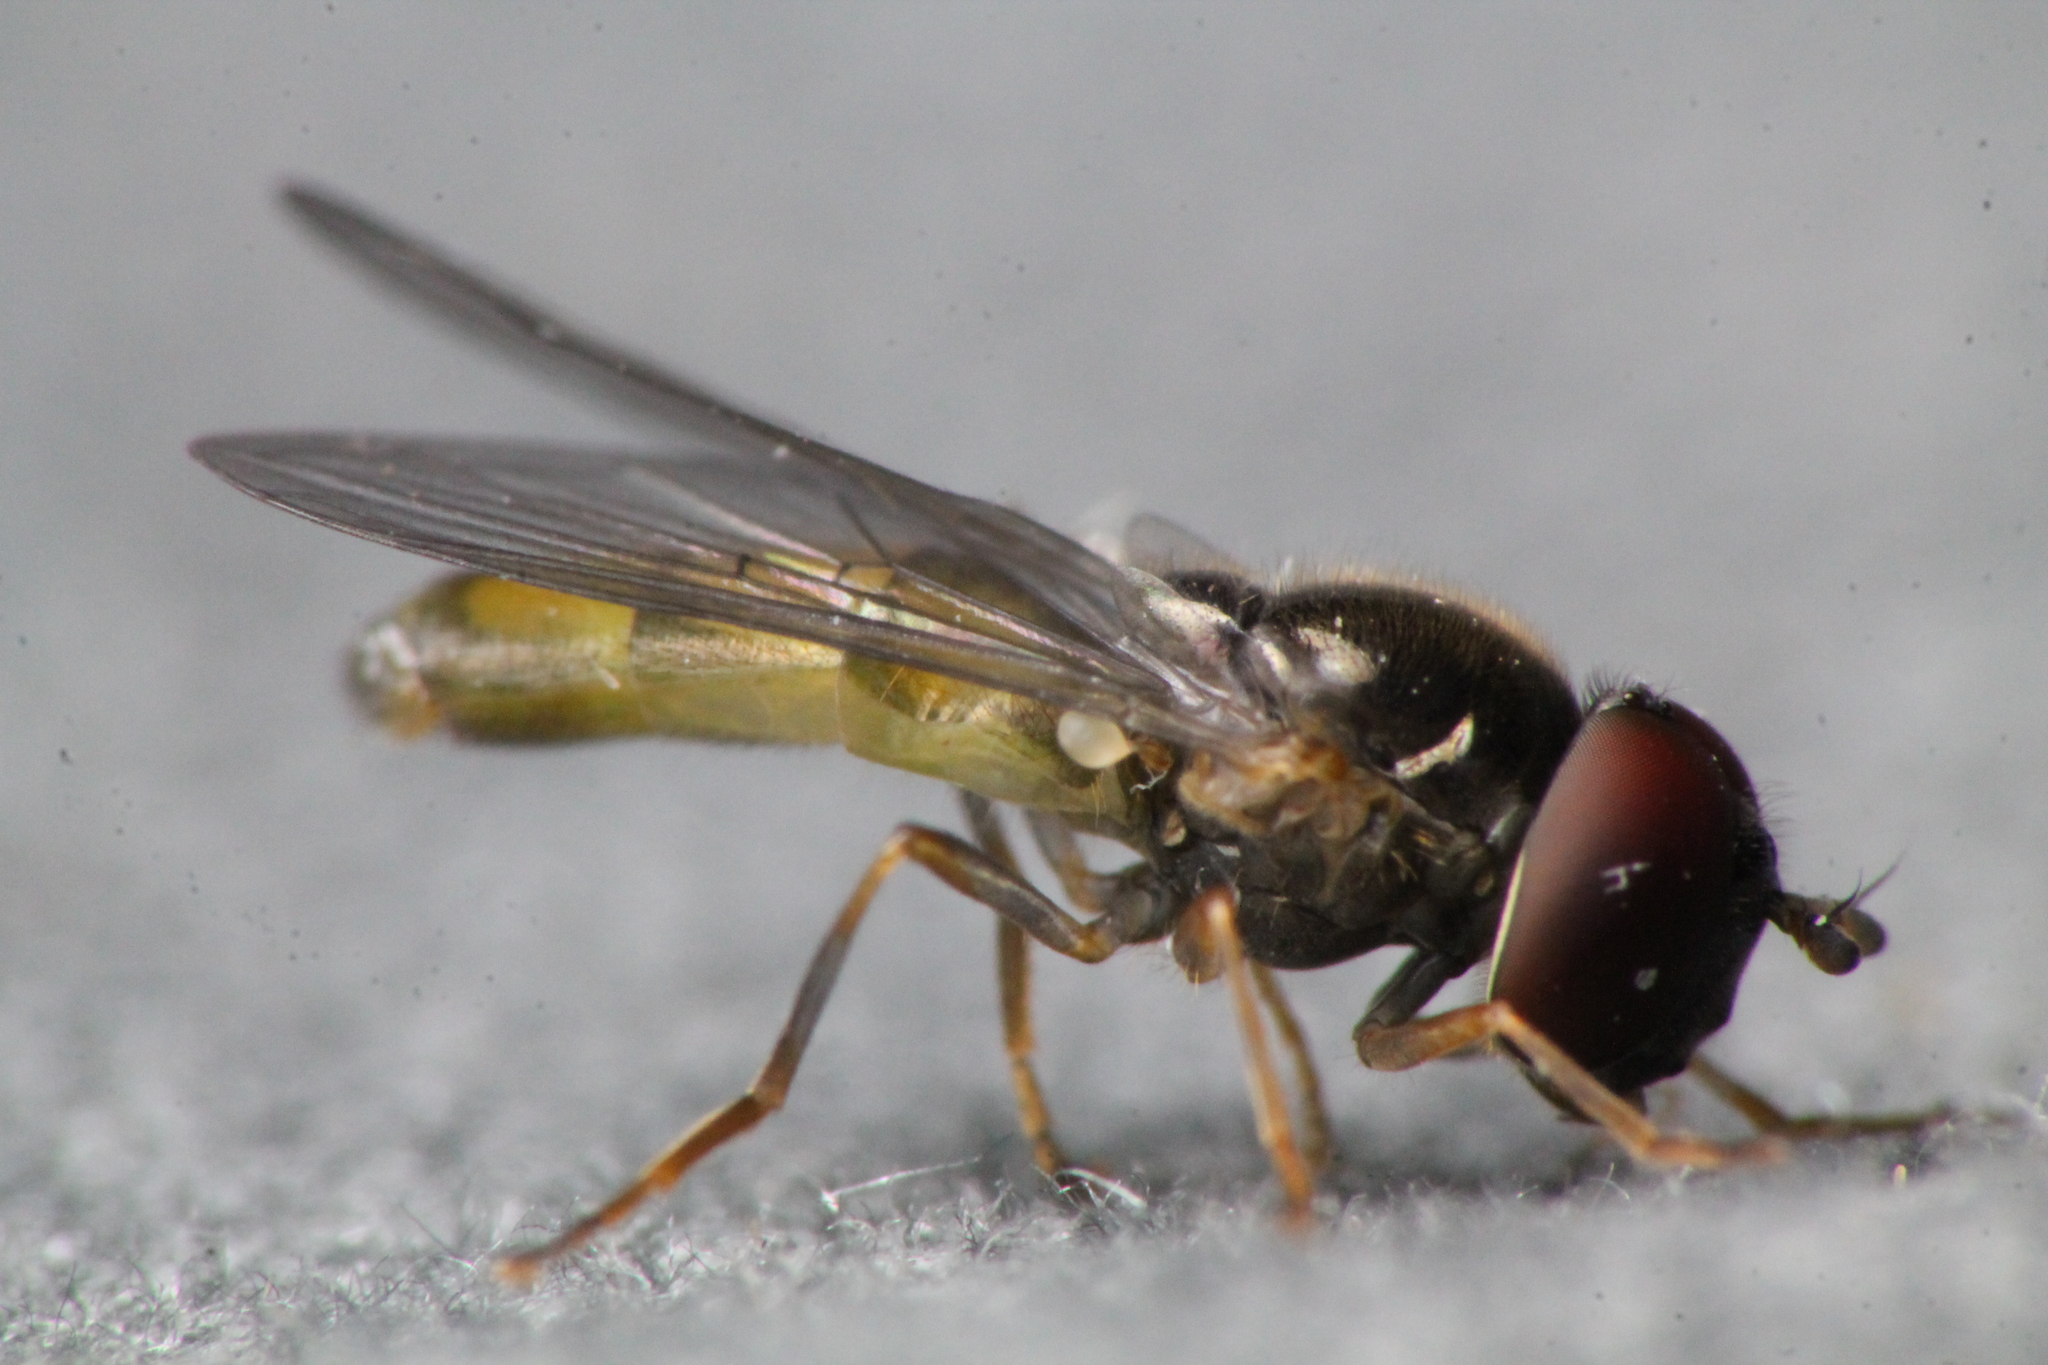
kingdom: Animalia
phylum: Arthropoda
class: Insecta
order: Diptera
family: Syrphidae
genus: Melanostoma
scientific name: Melanostoma fasciatum
